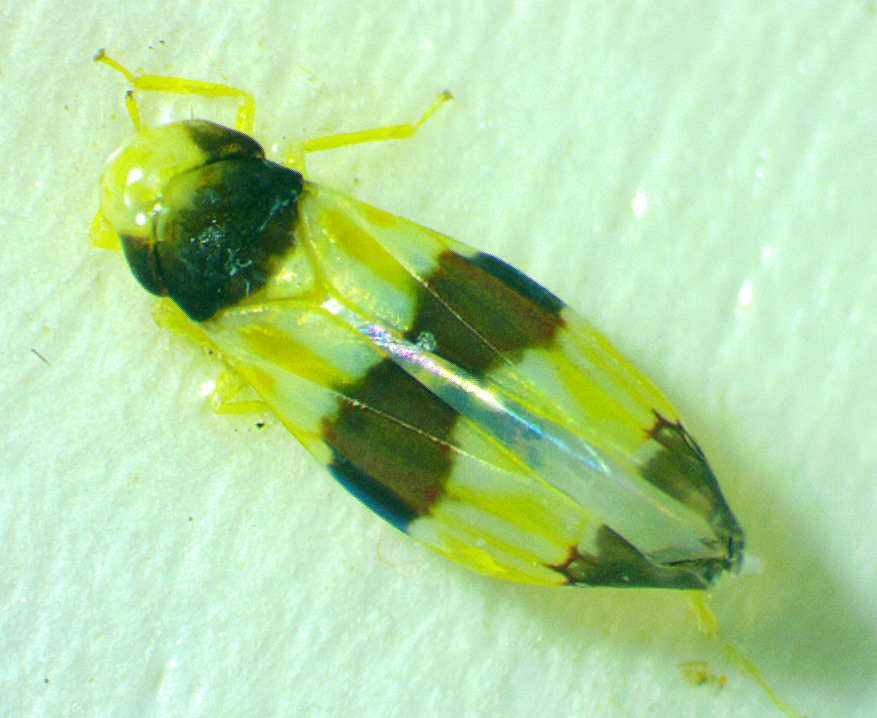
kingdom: Animalia
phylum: Arthropoda
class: Insecta
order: Hemiptera
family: Cicadellidae
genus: Erythroneura
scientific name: Erythroneura tricincta
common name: The threebanded grape leafhopper
